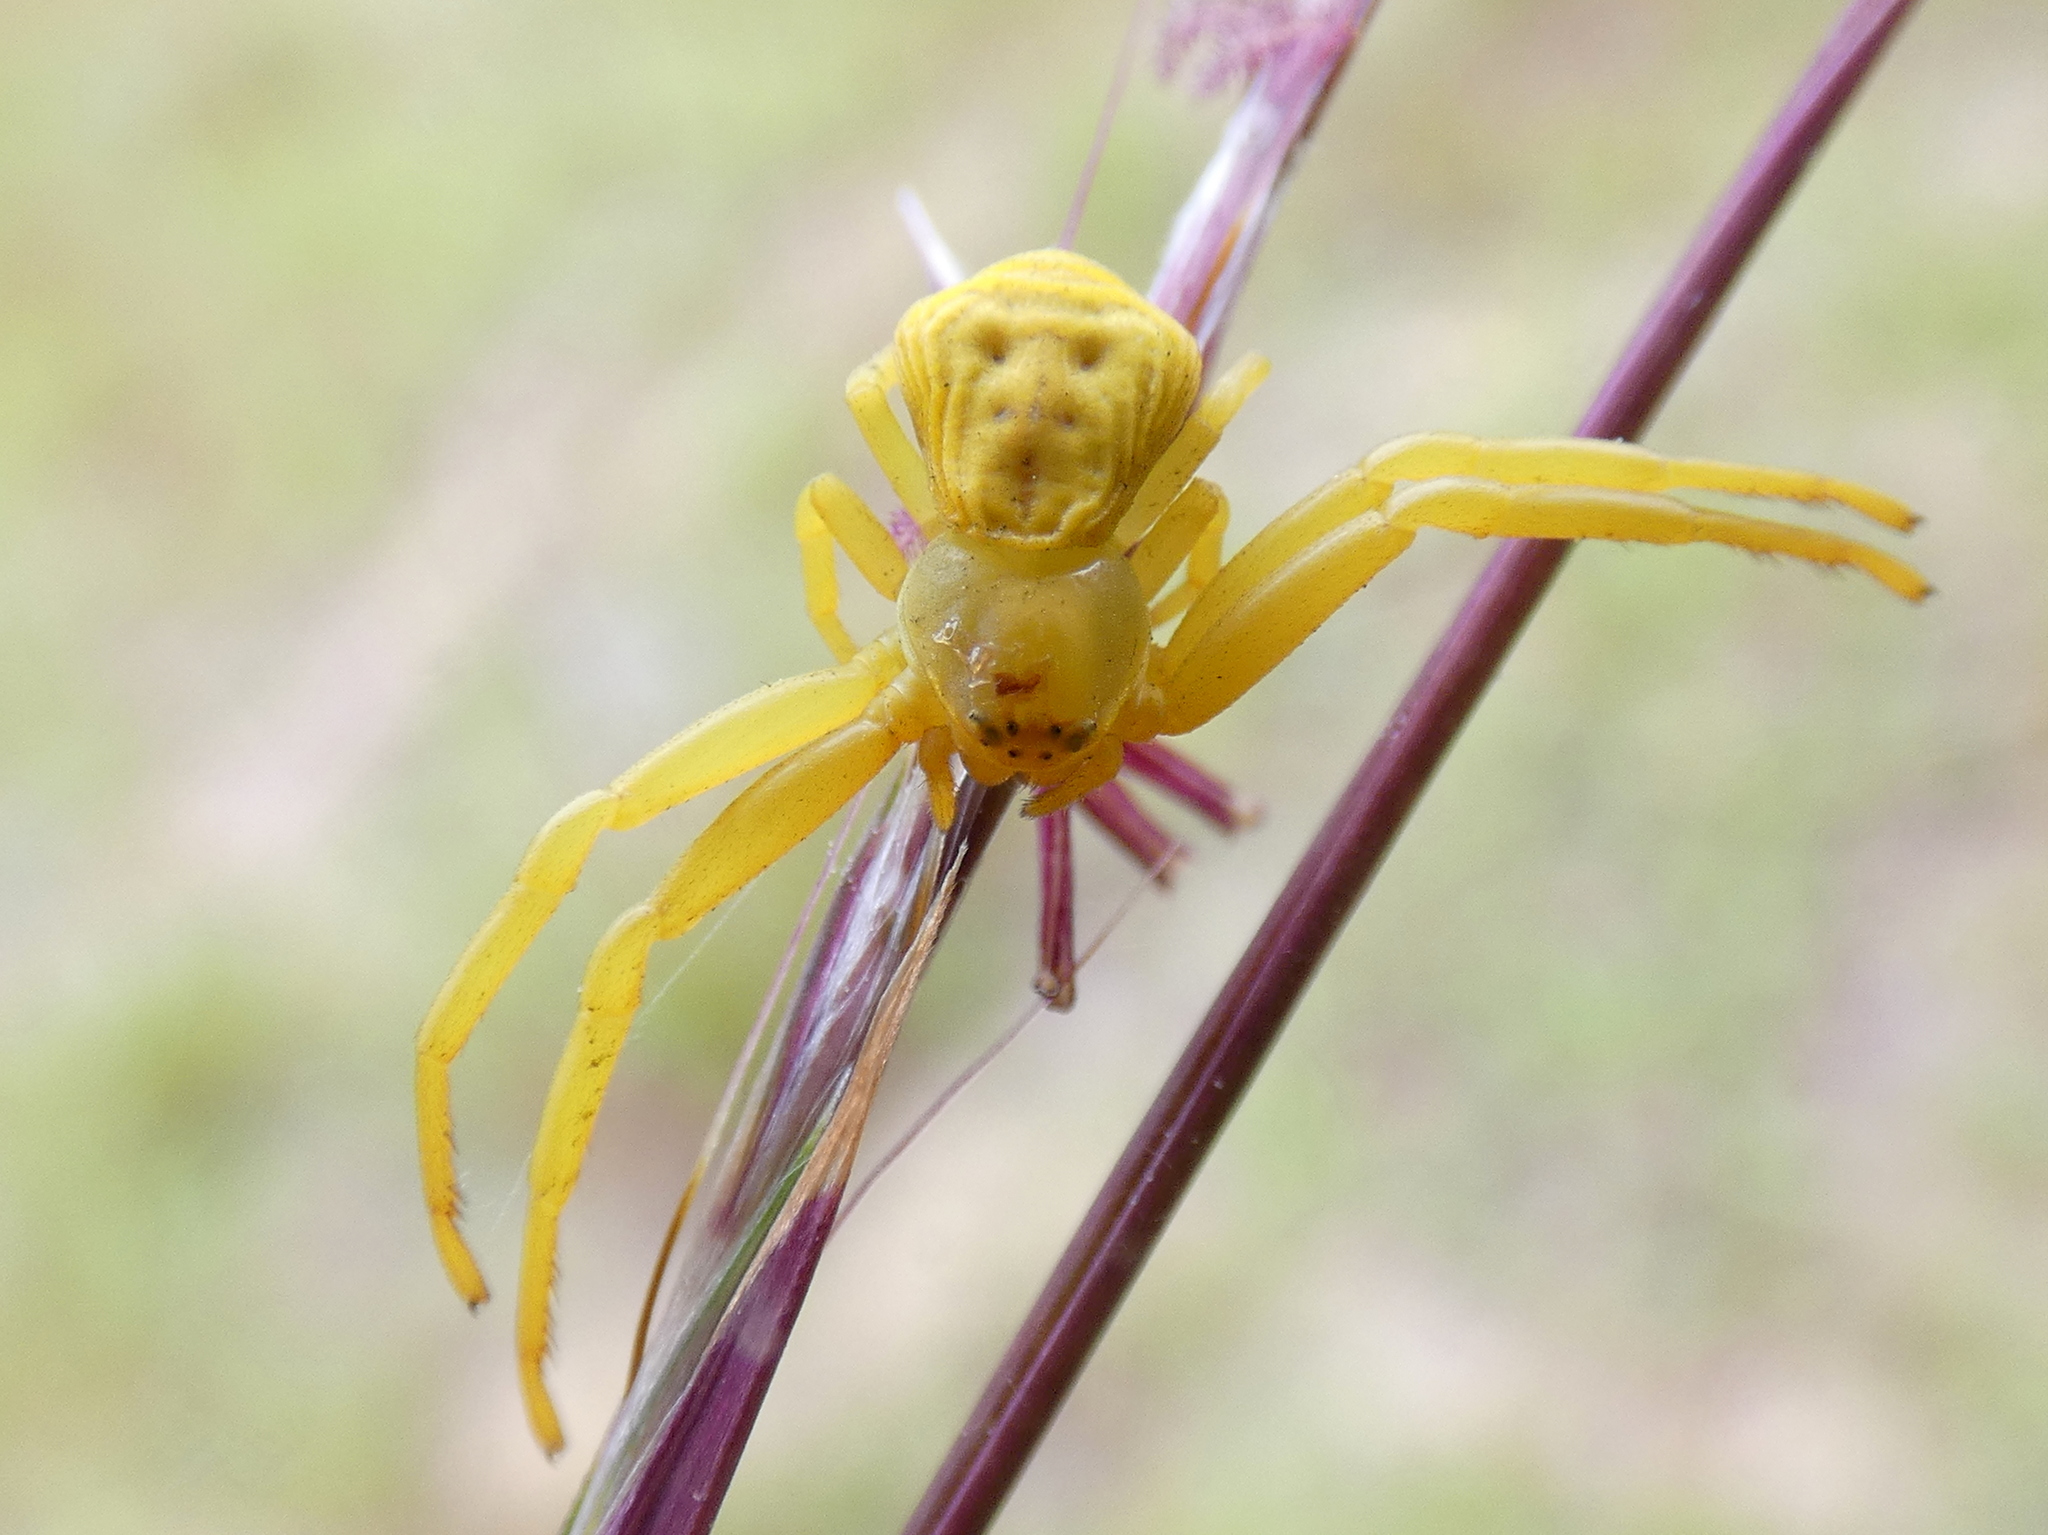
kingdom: Animalia
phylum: Arthropoda
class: Arachnida
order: Araneae
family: Thomisidae
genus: Misumenoides
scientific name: Misumenoides formosipes
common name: White-banded crab spider
